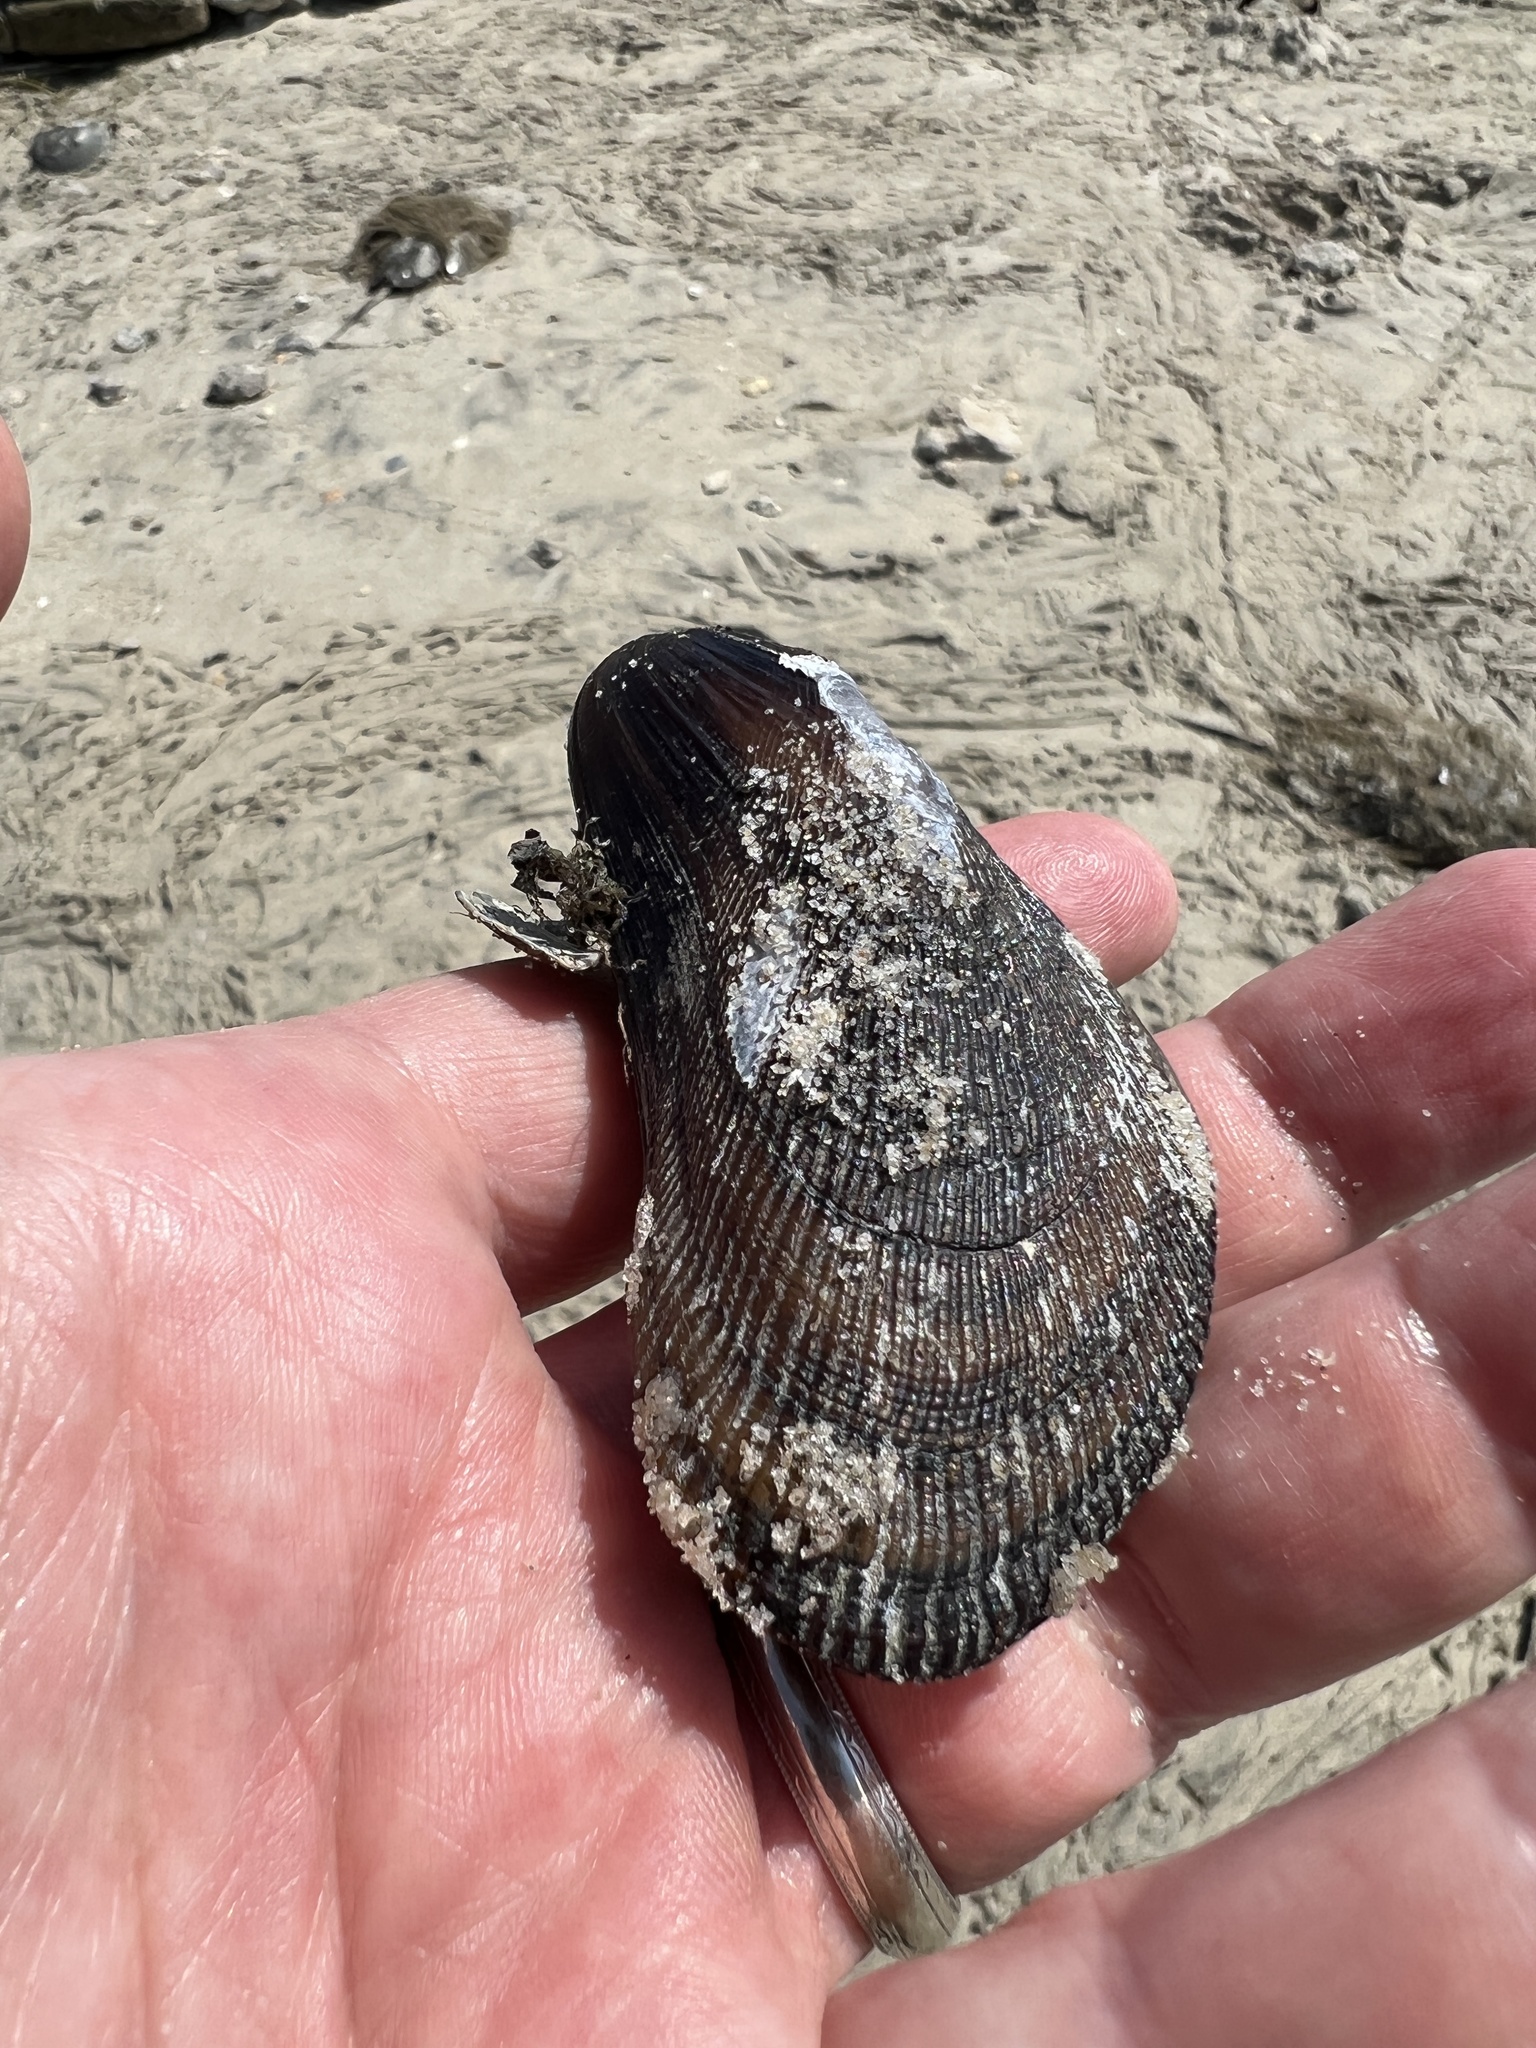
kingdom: Animalia
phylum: Mollusca
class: Bivalvia
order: Mytilida
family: Mytilidae
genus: Geukensia
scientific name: Geukensia demissa
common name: Ribbed mussel
